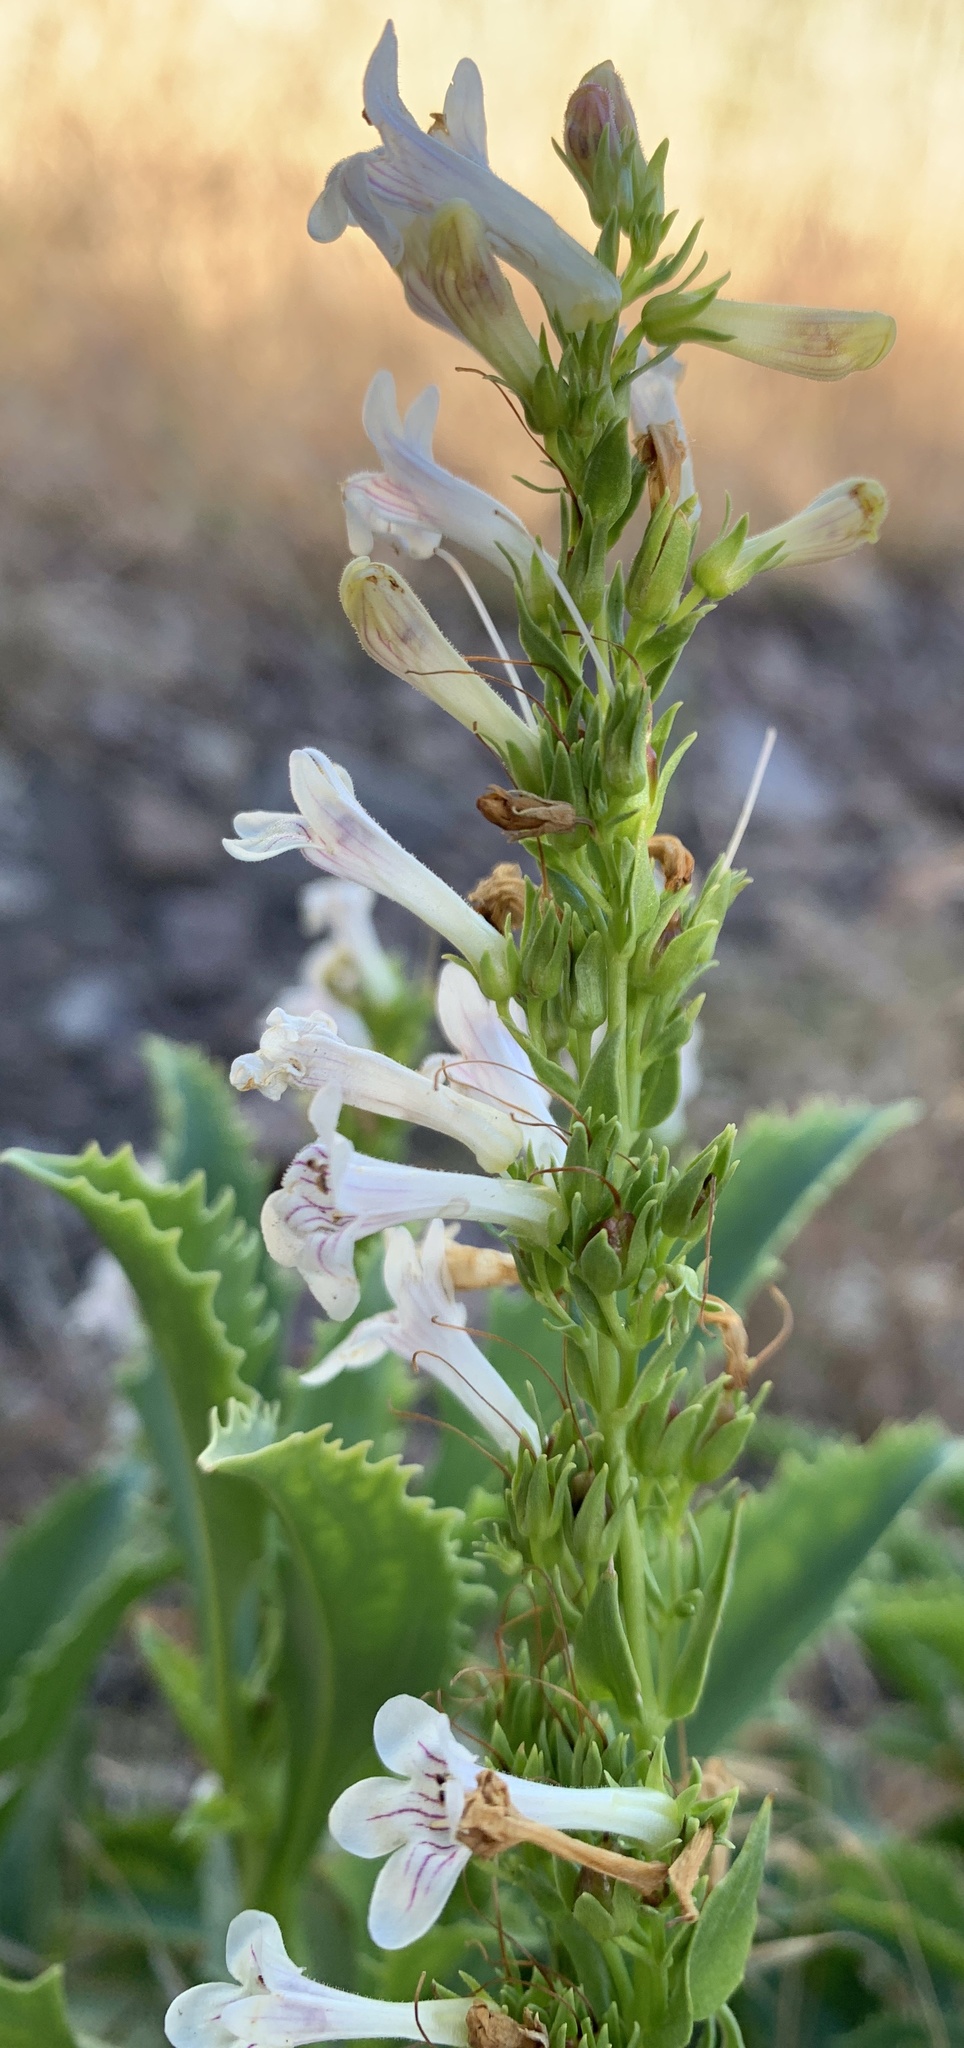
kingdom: Plantae
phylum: Tracheophyta
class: Magnoliopsida
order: Lamiales
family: Plantaginaceae
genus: Penstemon
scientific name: Penstemon deustus
